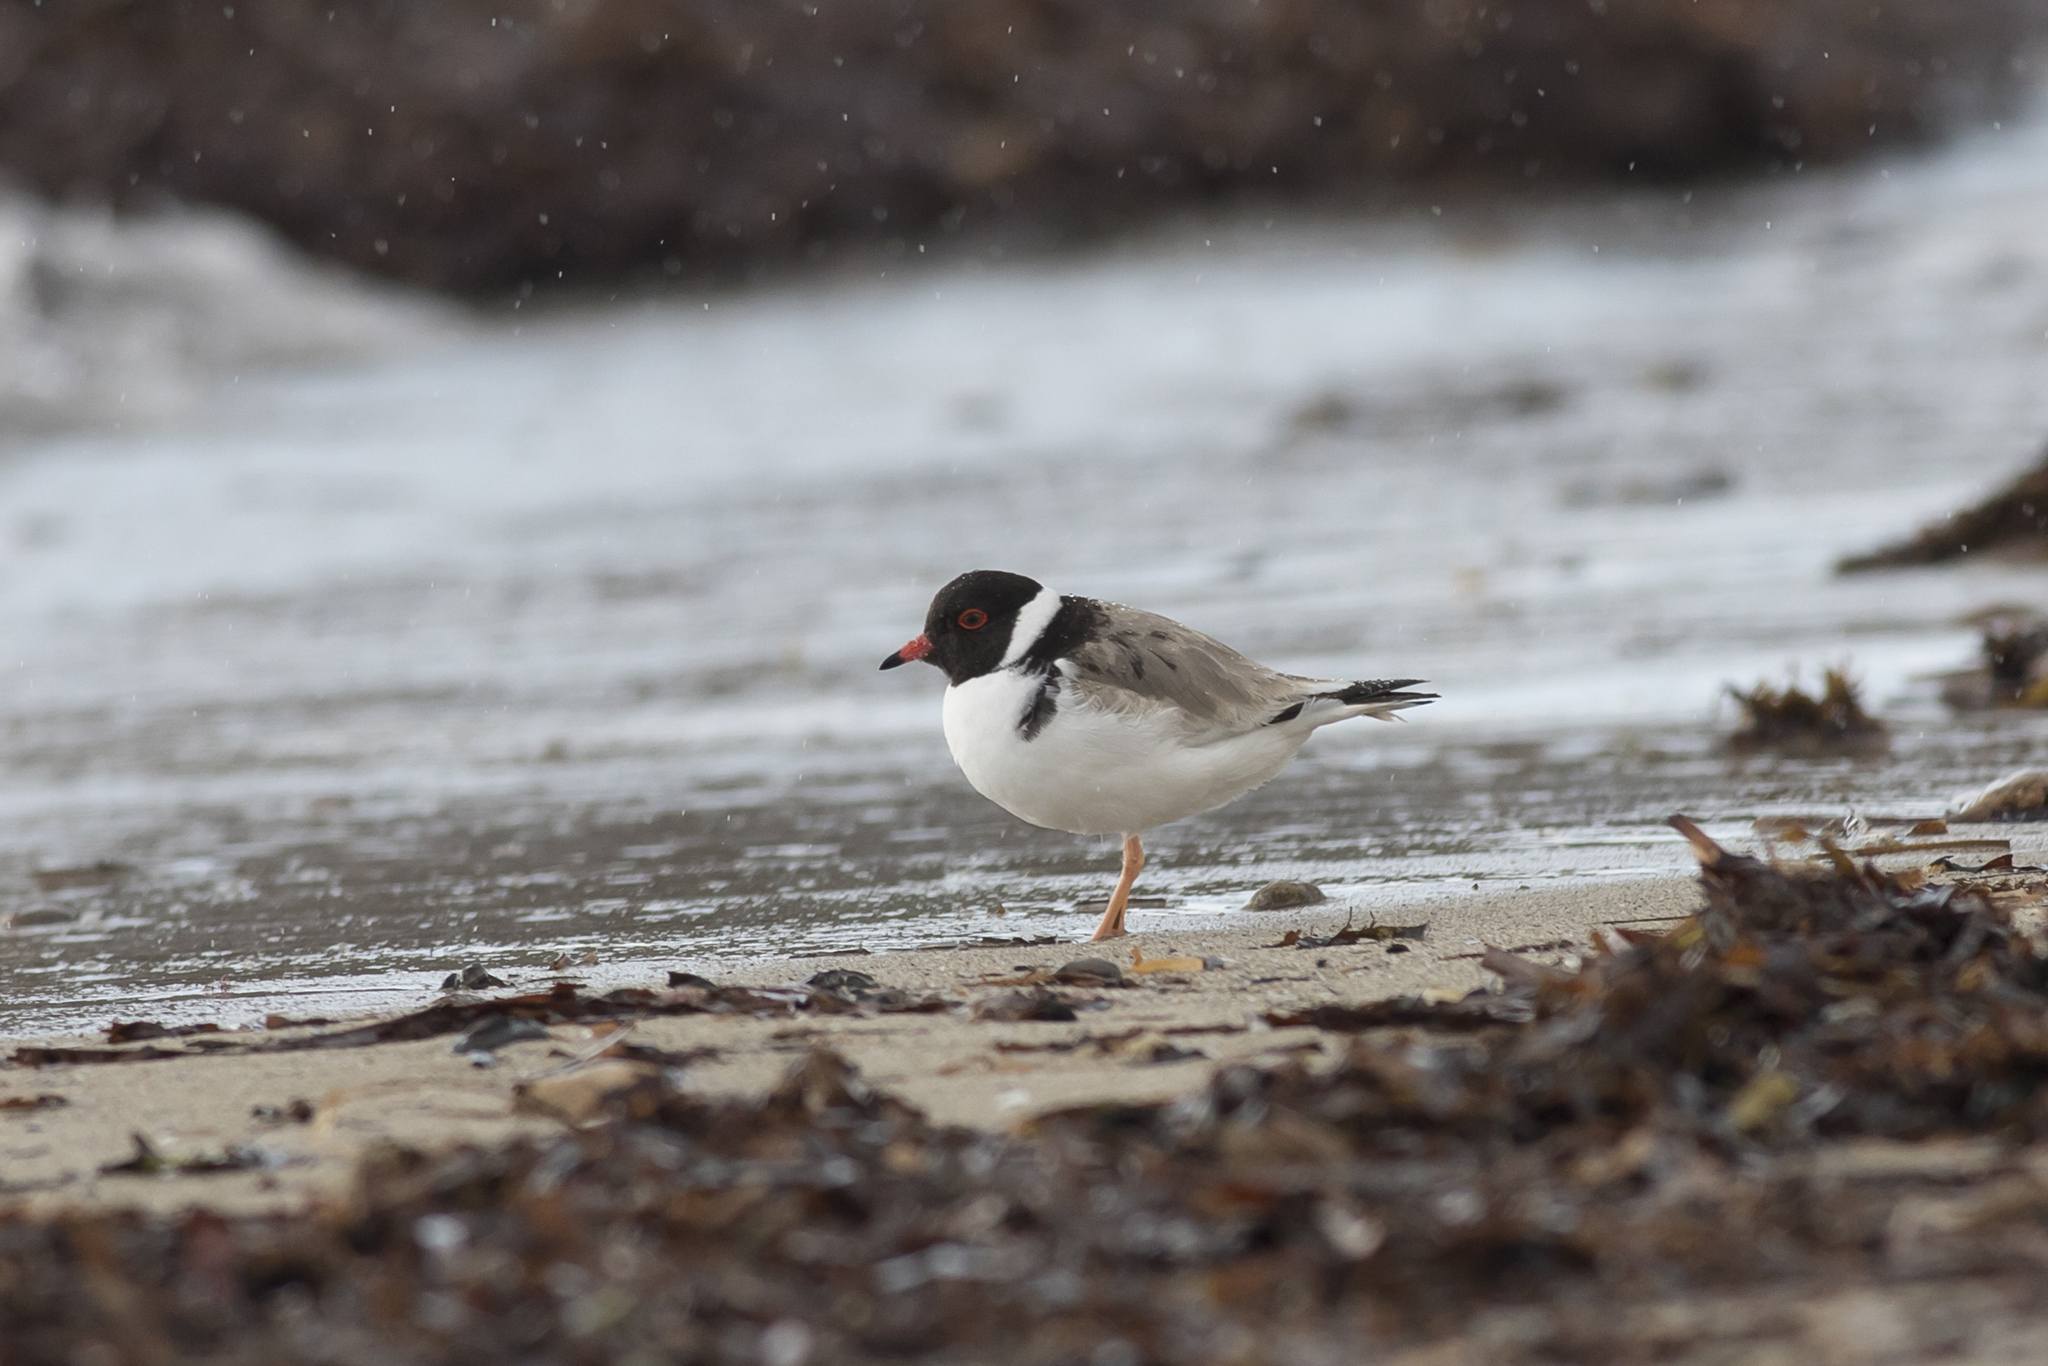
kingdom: Animalia
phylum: Chordata
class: Aves
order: Charadriiformes
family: Charadriidae
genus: Thinornis
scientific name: Thinornis cucullatus
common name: Hooded dotterel
